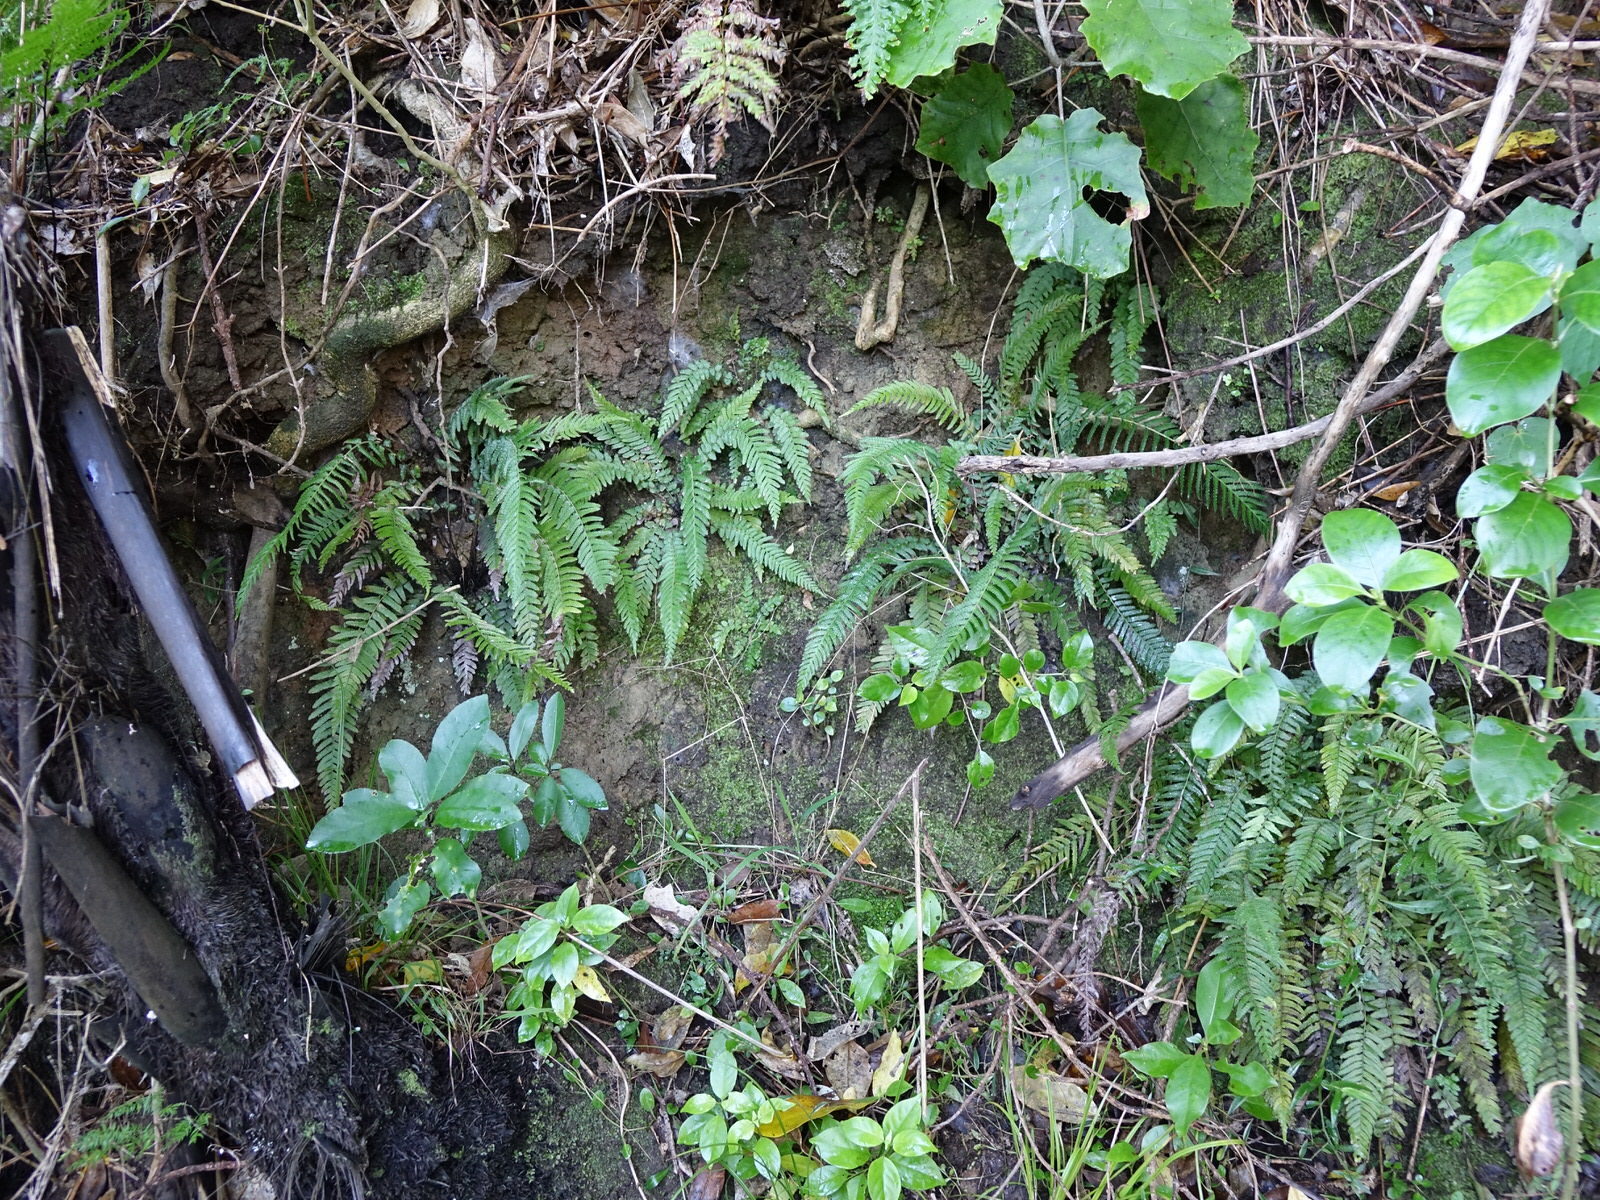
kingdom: Plantae
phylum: Tracheophyta
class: Polypodiopsida
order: Polypodiales
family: Blechnaceae
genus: Doodia
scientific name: Doodia australis
